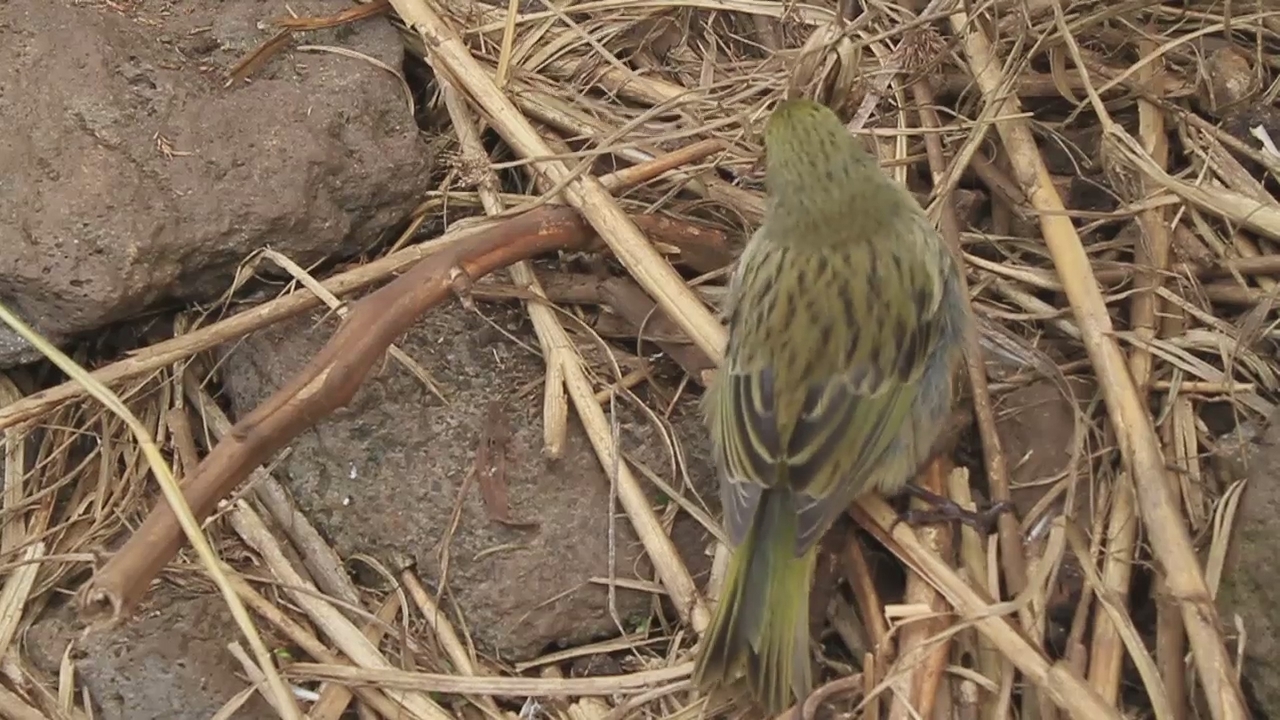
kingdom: Animalia
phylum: Chordata
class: Aves
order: Passeriformes
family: Thraupidae
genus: Nesospiza
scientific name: Nesospiza acunhae
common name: Inaccessible island finch
